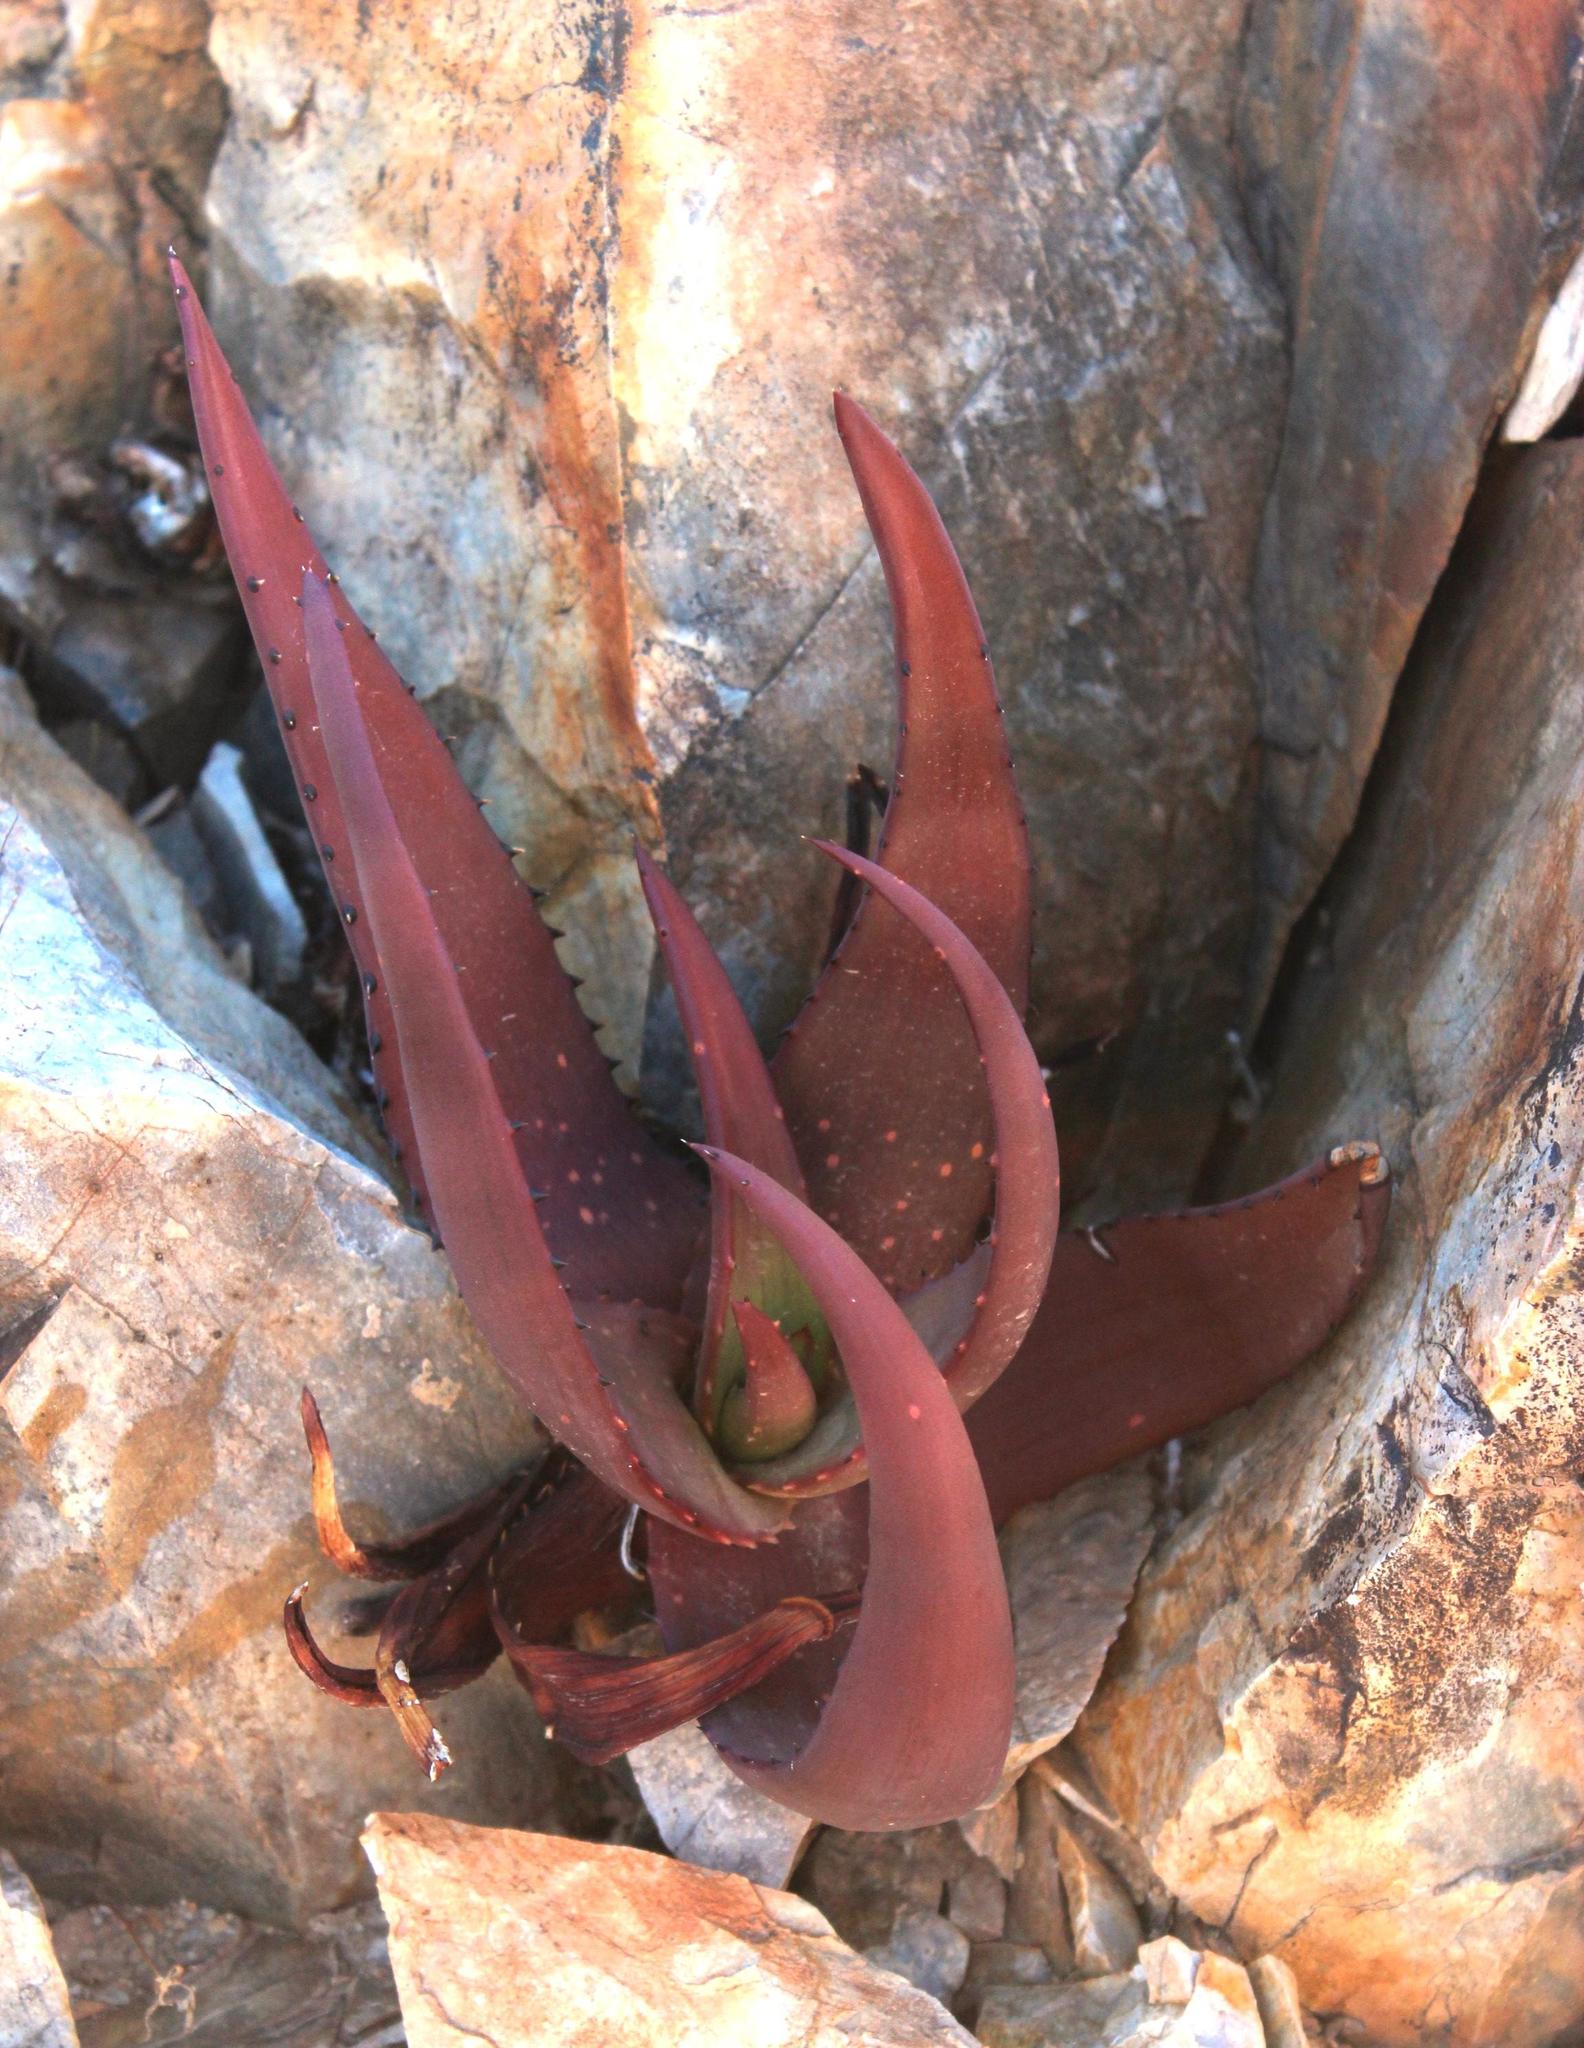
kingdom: Plantae
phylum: Tracheophyta
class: Liliopsida
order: Asparagales
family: Asphodelaceae
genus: Aloe
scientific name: Aloe gariepensis
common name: Orange river aloe
